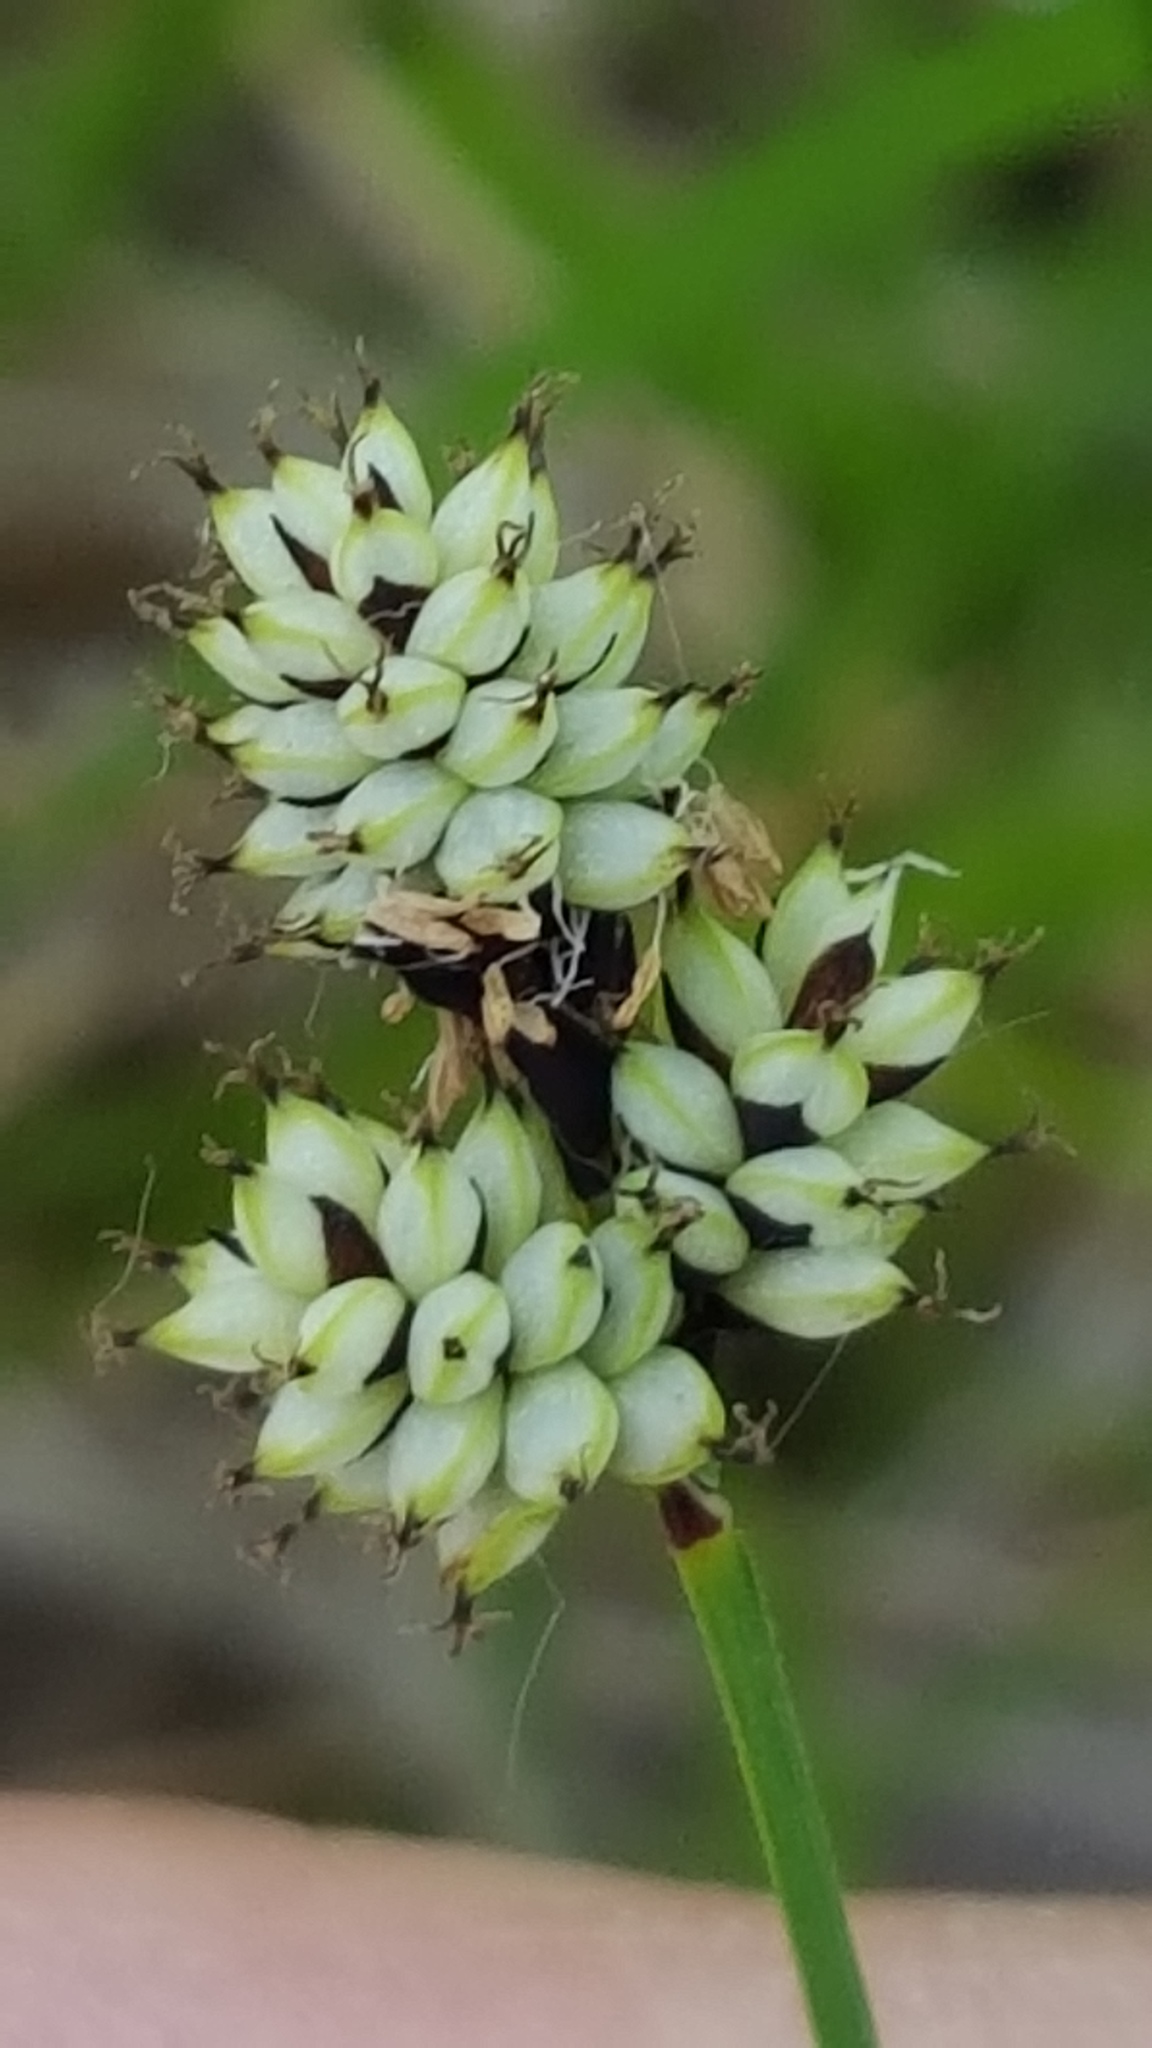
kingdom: Plantae
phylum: Tracheophyta
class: Liliopsida
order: Poales
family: Cyperaceae
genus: Carex
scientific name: Carex media
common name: Alpine sedge
